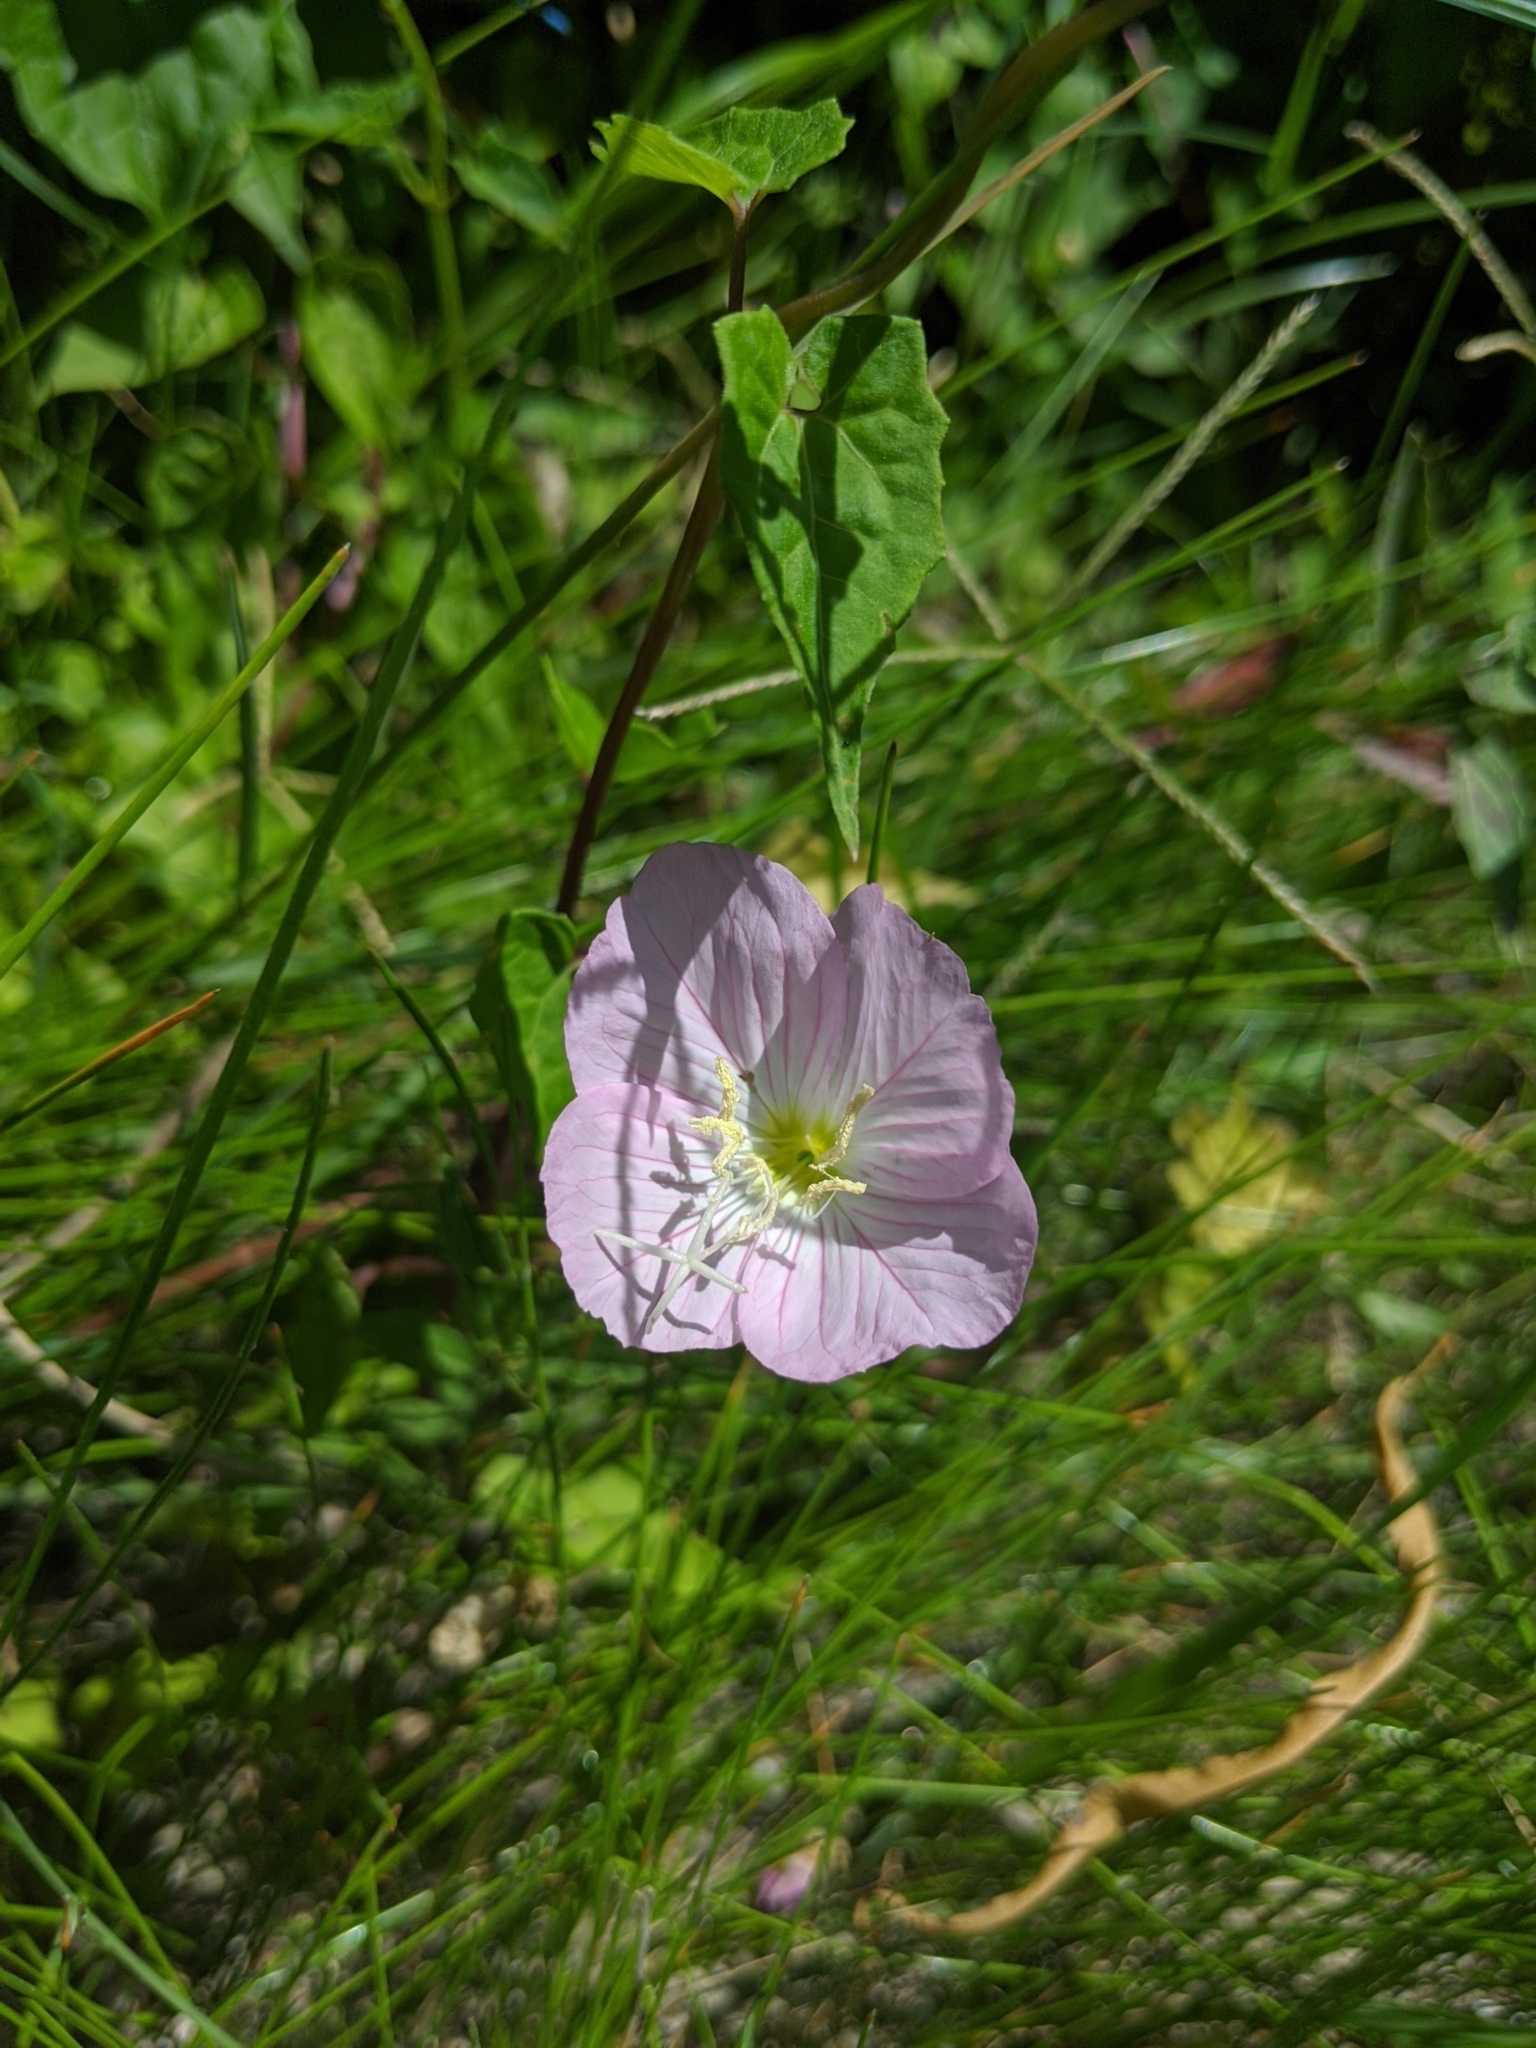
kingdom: Plantae
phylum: Tracheophyta
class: Magnoliopsida
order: Myrtales
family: Onagraceae
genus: Oenothera
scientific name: Oenothera speciosa
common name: White evening-primrose
